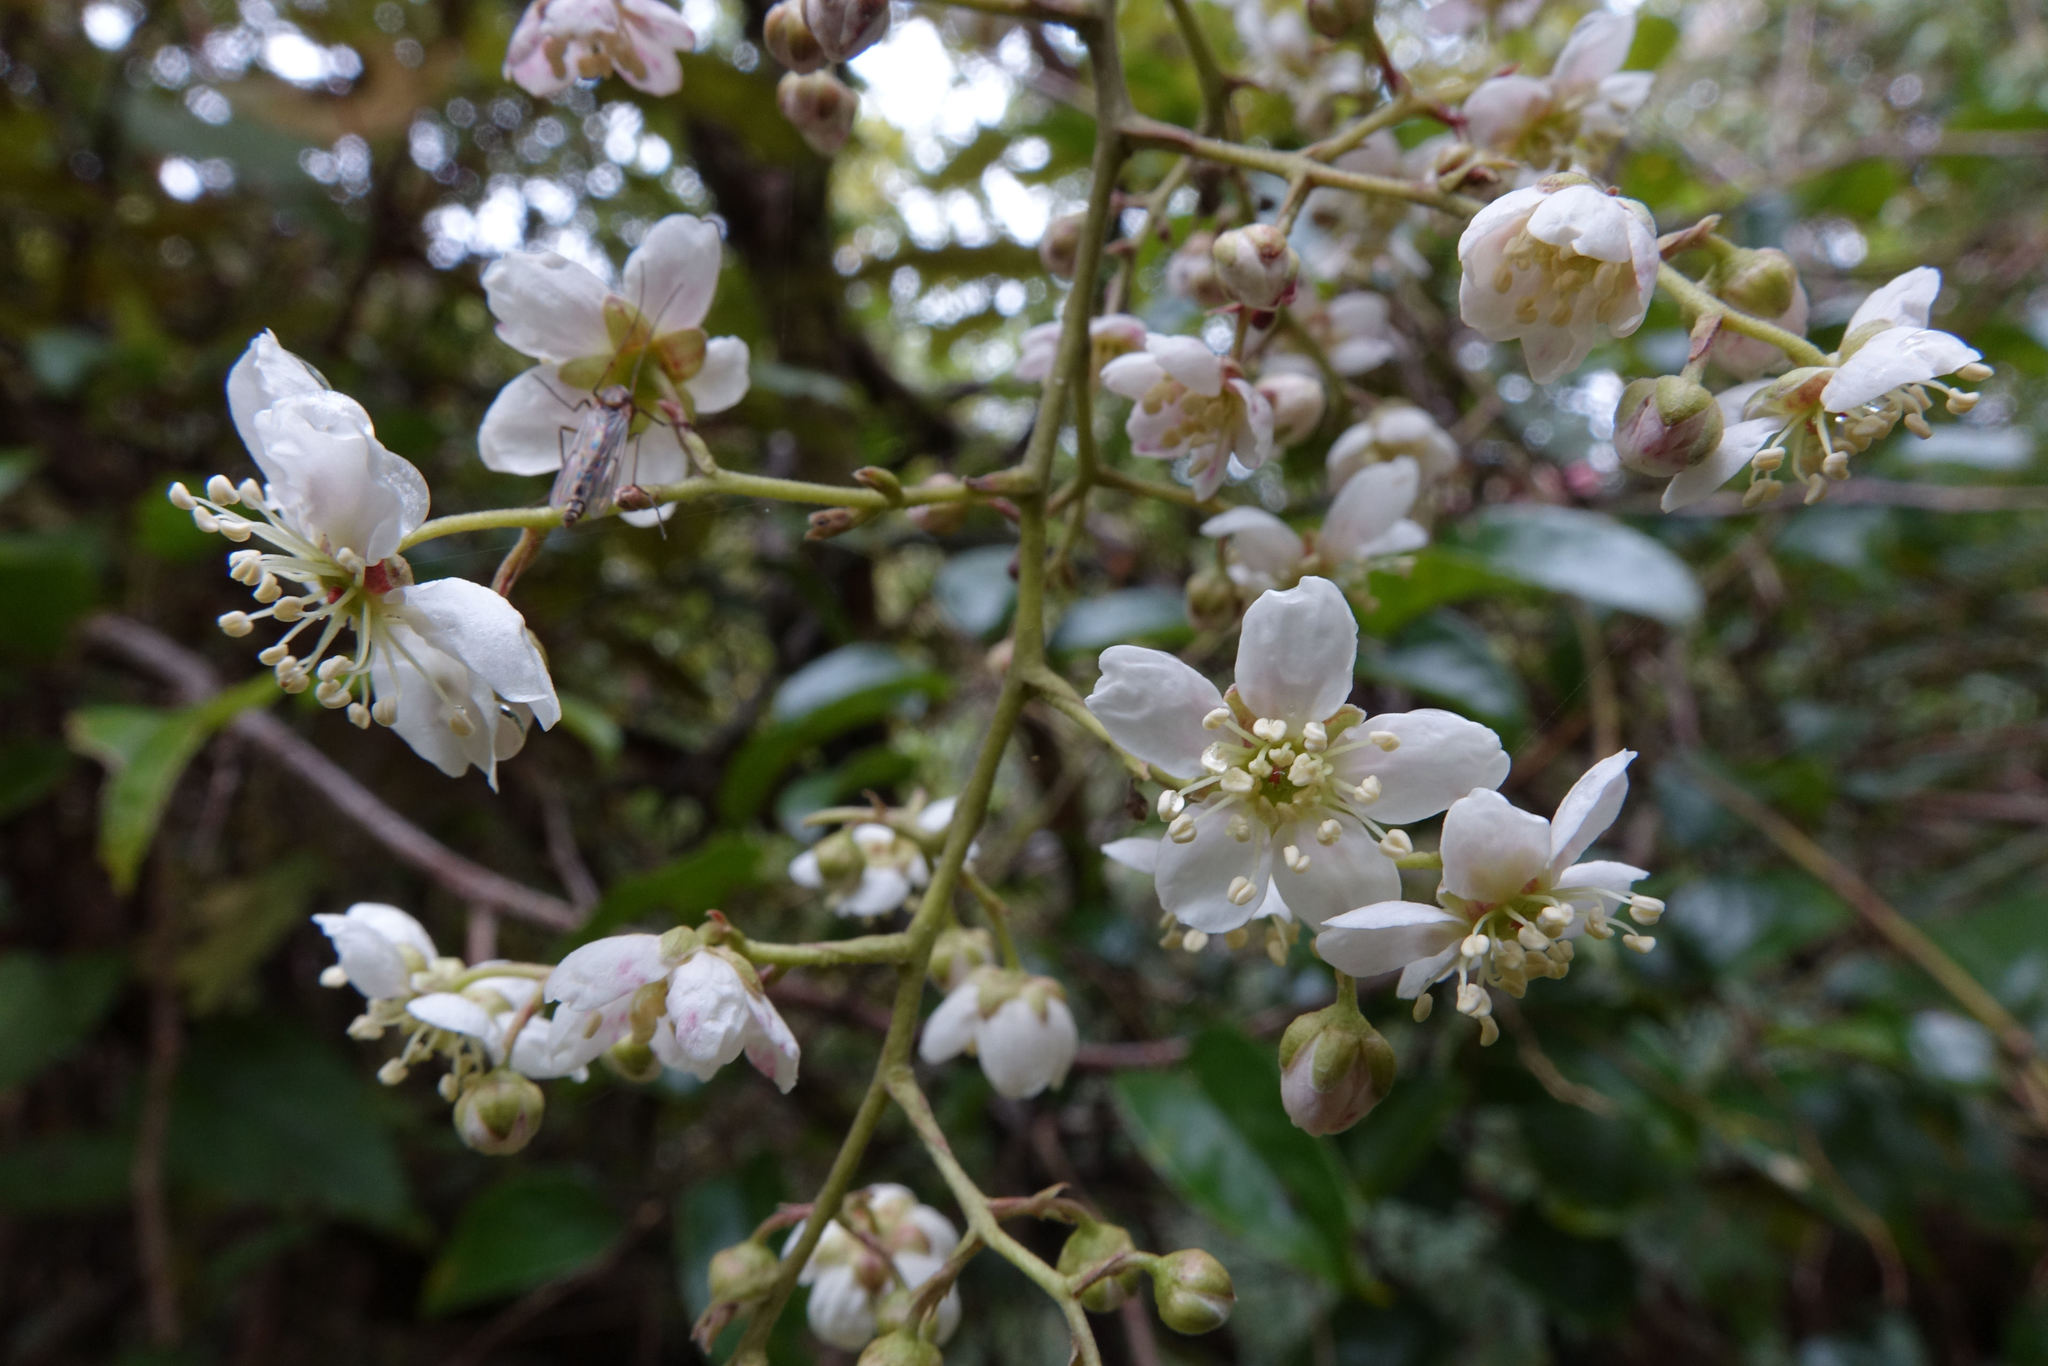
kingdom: Plantae
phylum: Tracheophyta
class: Magnoliopsida
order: Rosales
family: Rosaceae
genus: Rubus
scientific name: Rubus cissoides
